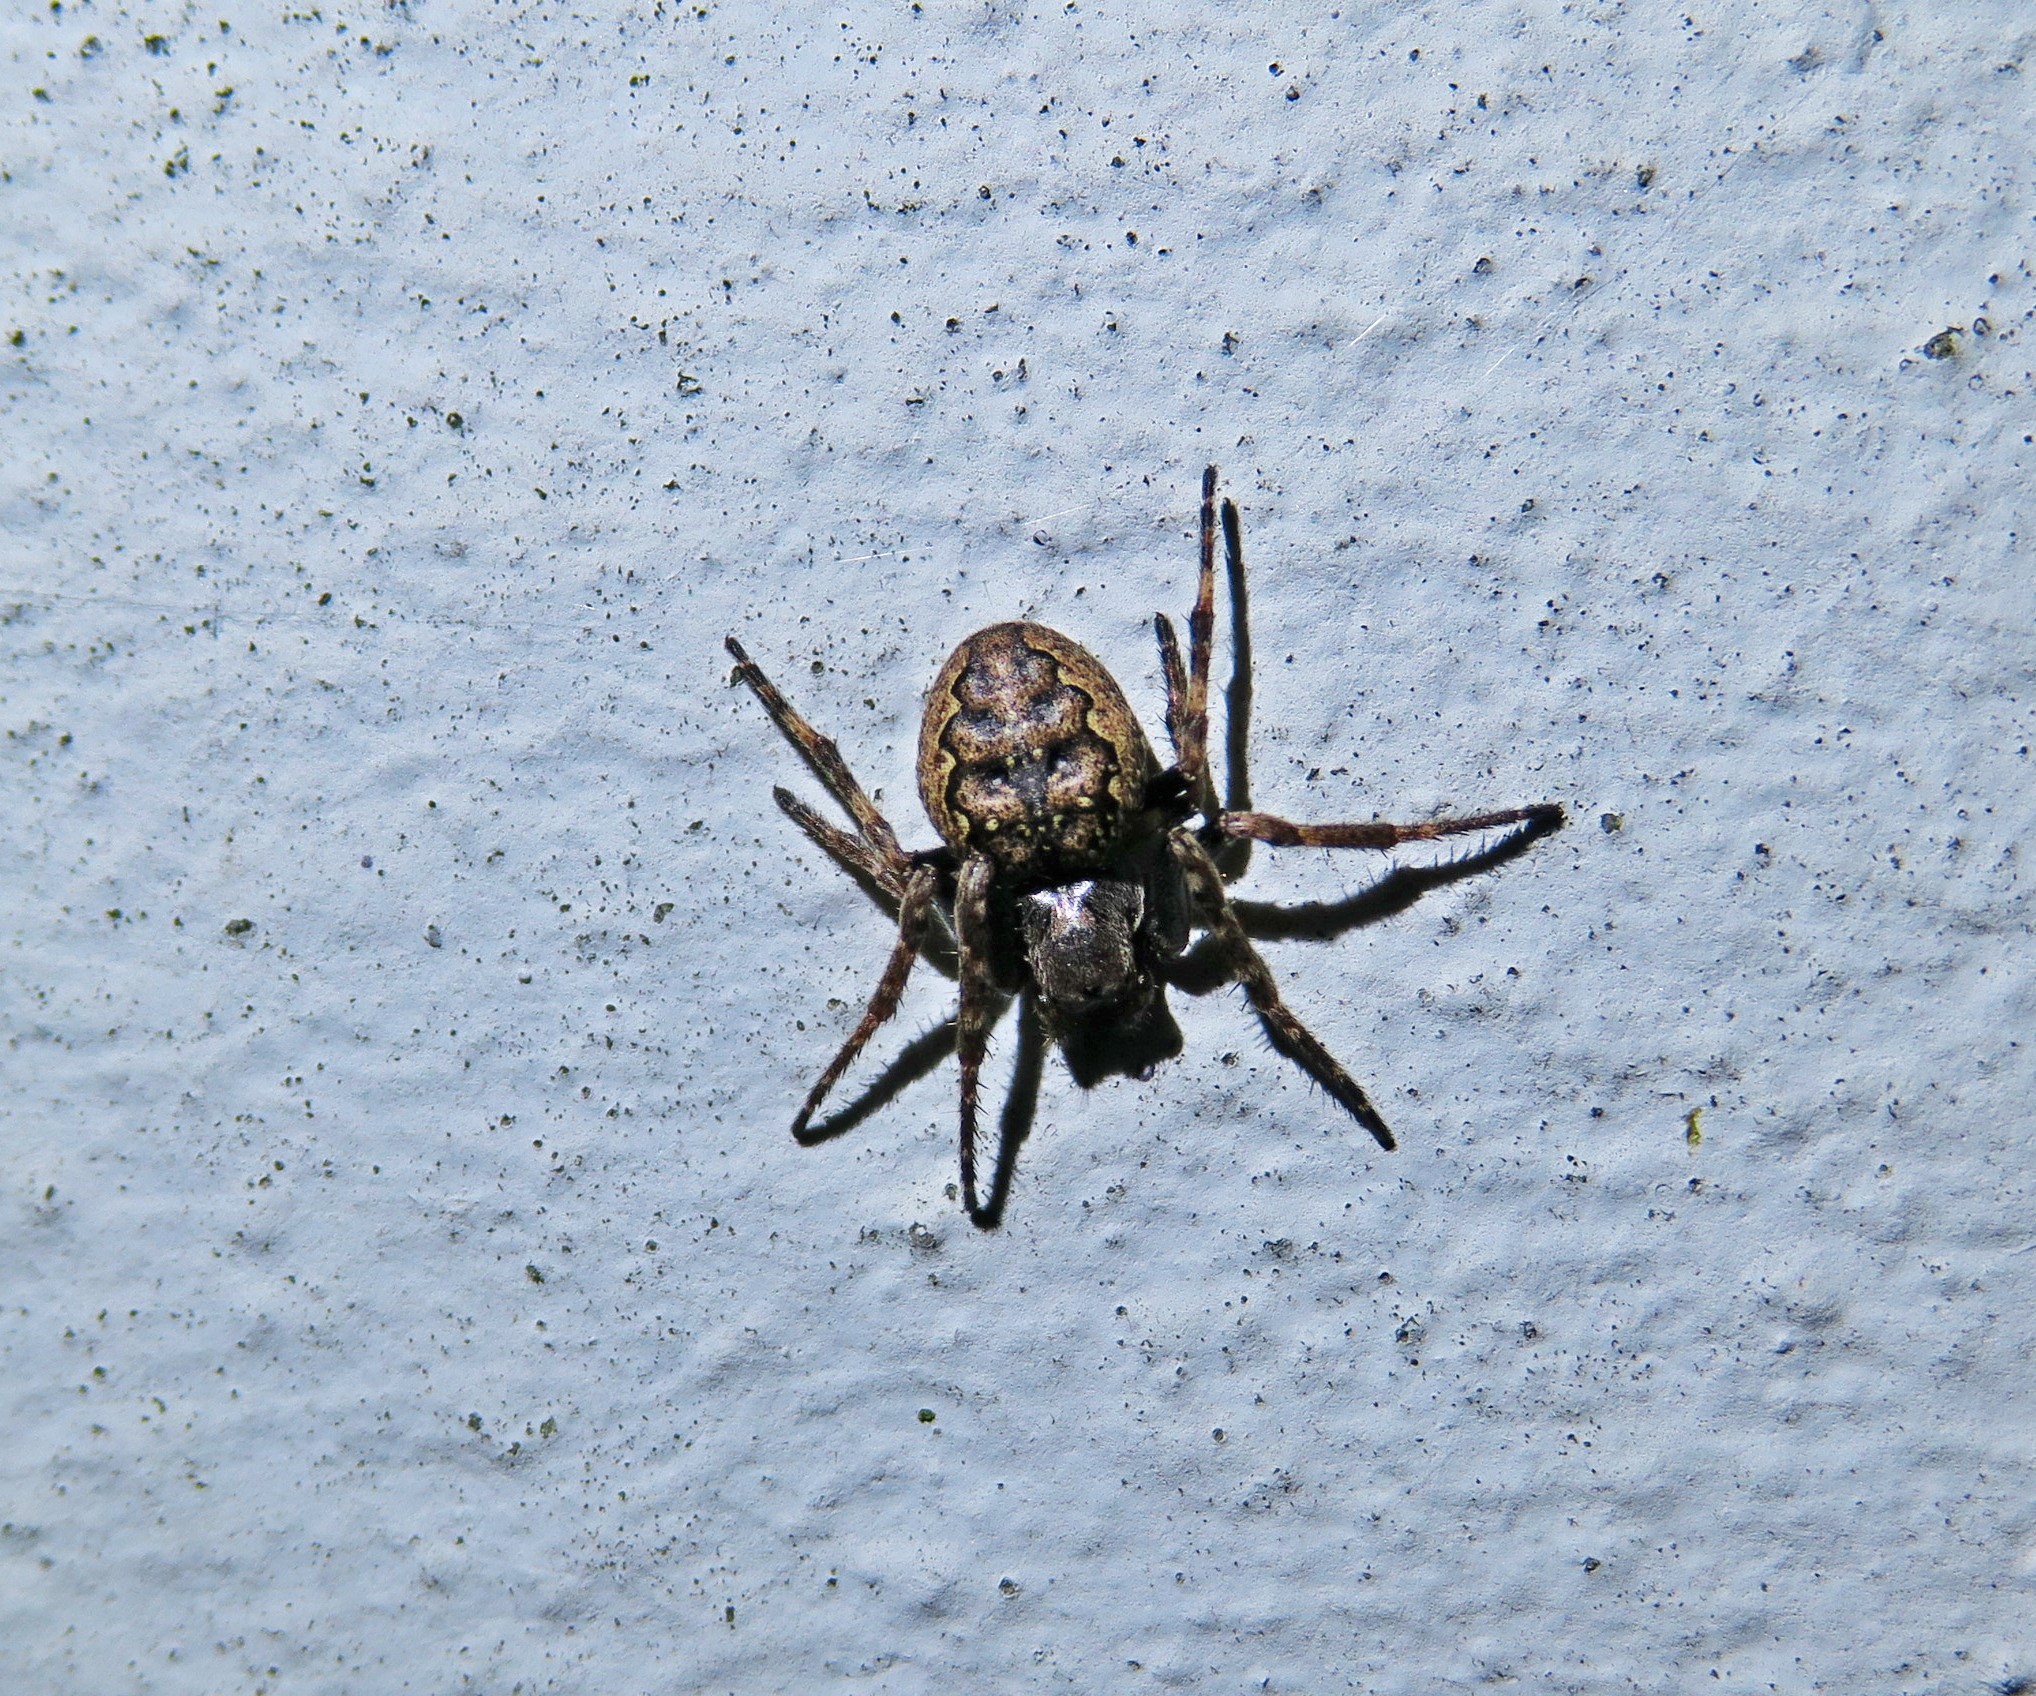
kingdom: Animalia
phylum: Arthropoda
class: Arachnida
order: Araneae
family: Araneidae
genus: Nuctenea
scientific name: Nuctenea umbratica
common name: Toad spider
